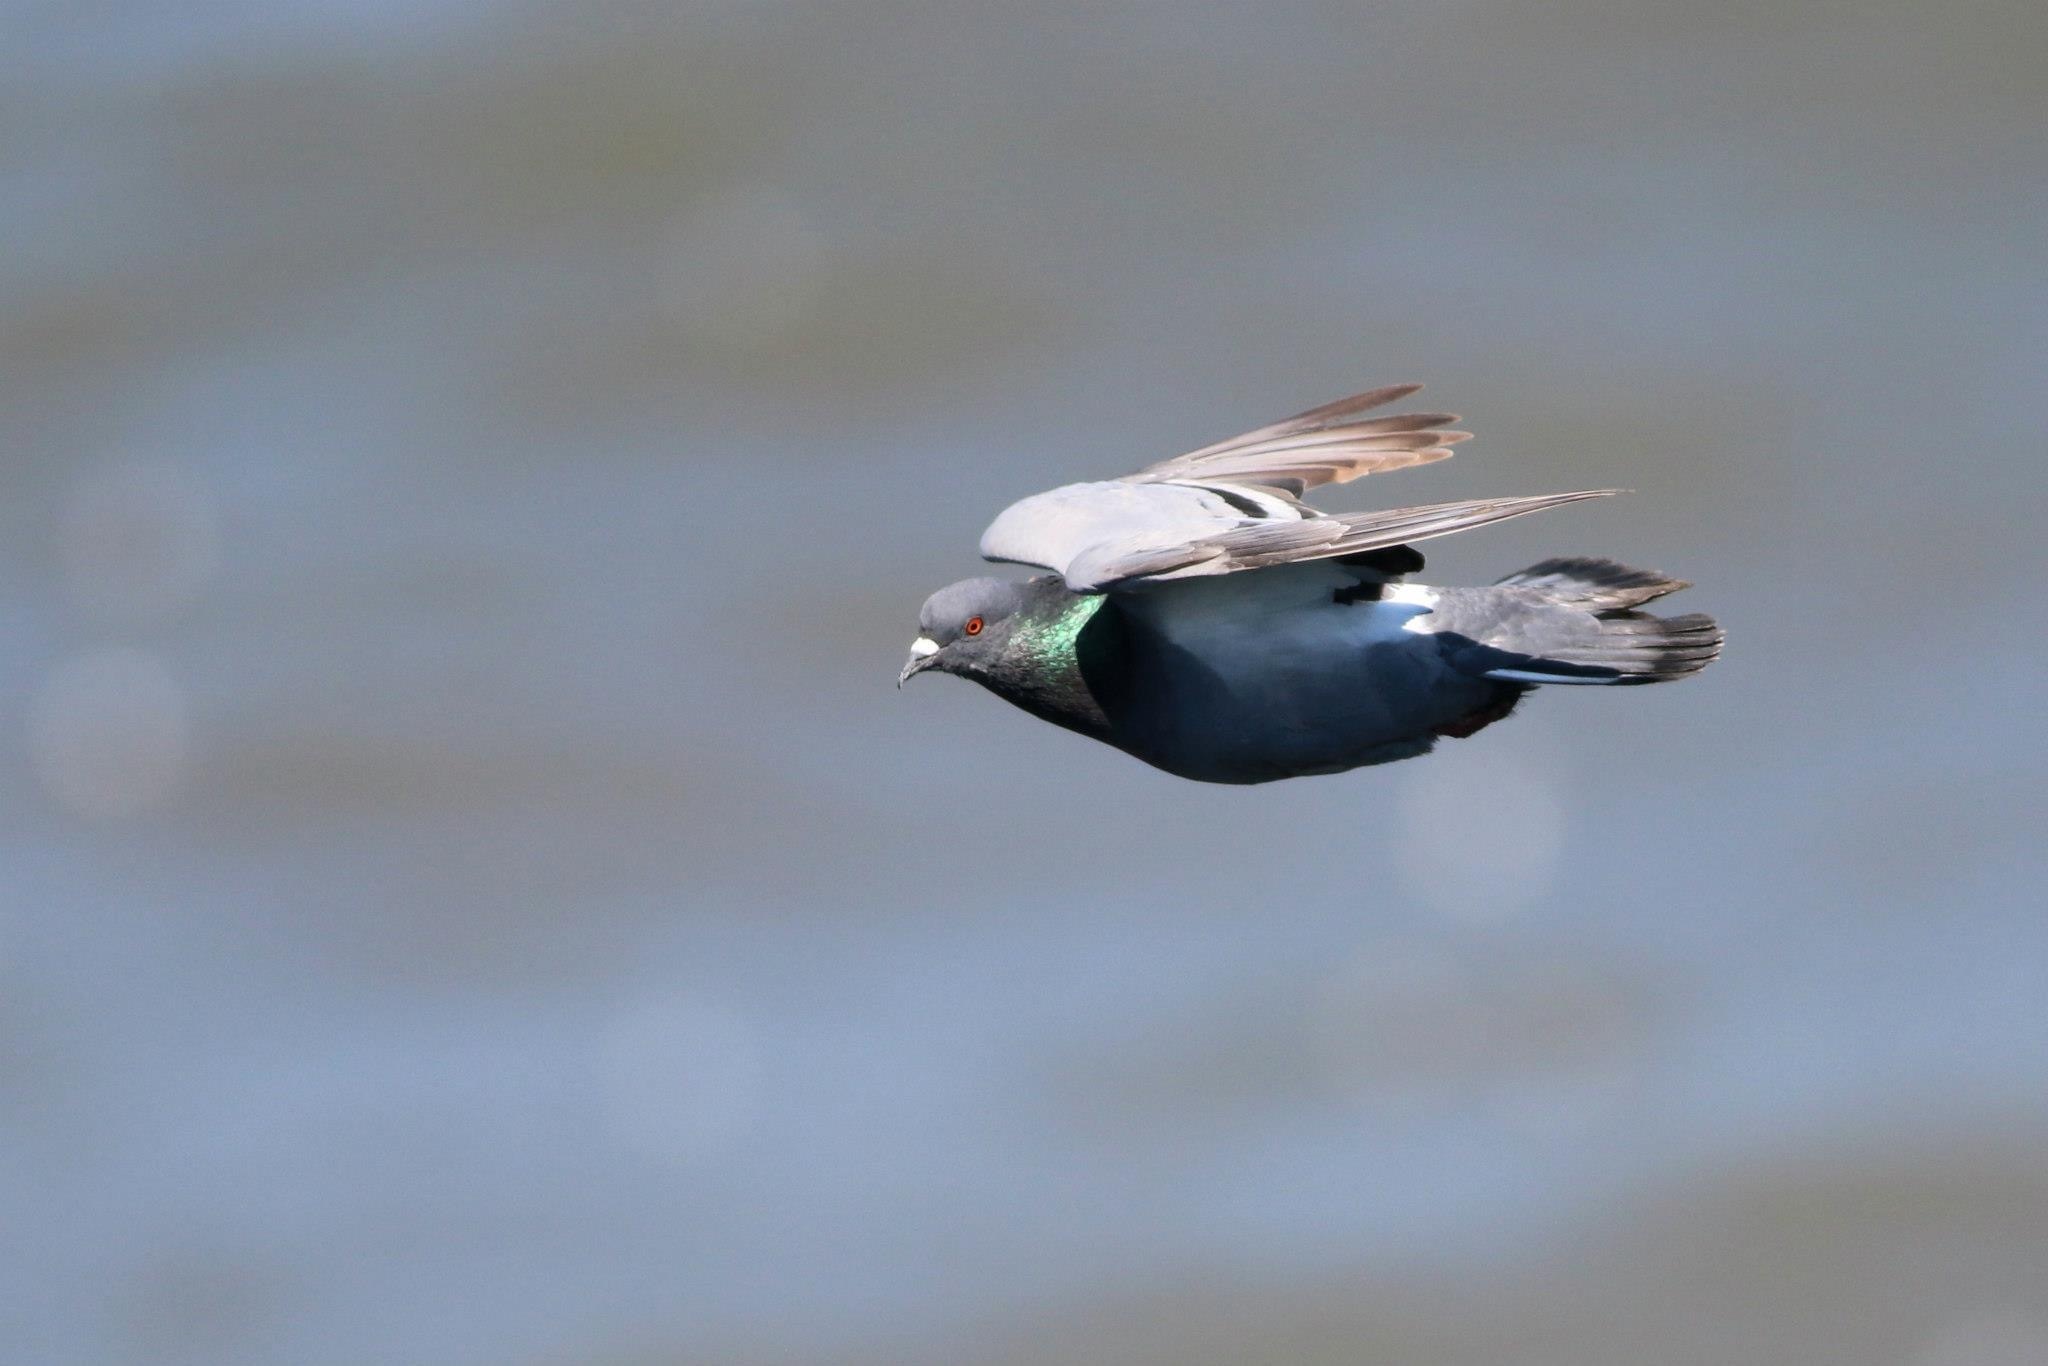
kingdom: Animalia
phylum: Chordata
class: Aves
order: Columbiformes
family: Columbidae
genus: Columba
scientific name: Columba livia
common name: Rock pigeon
